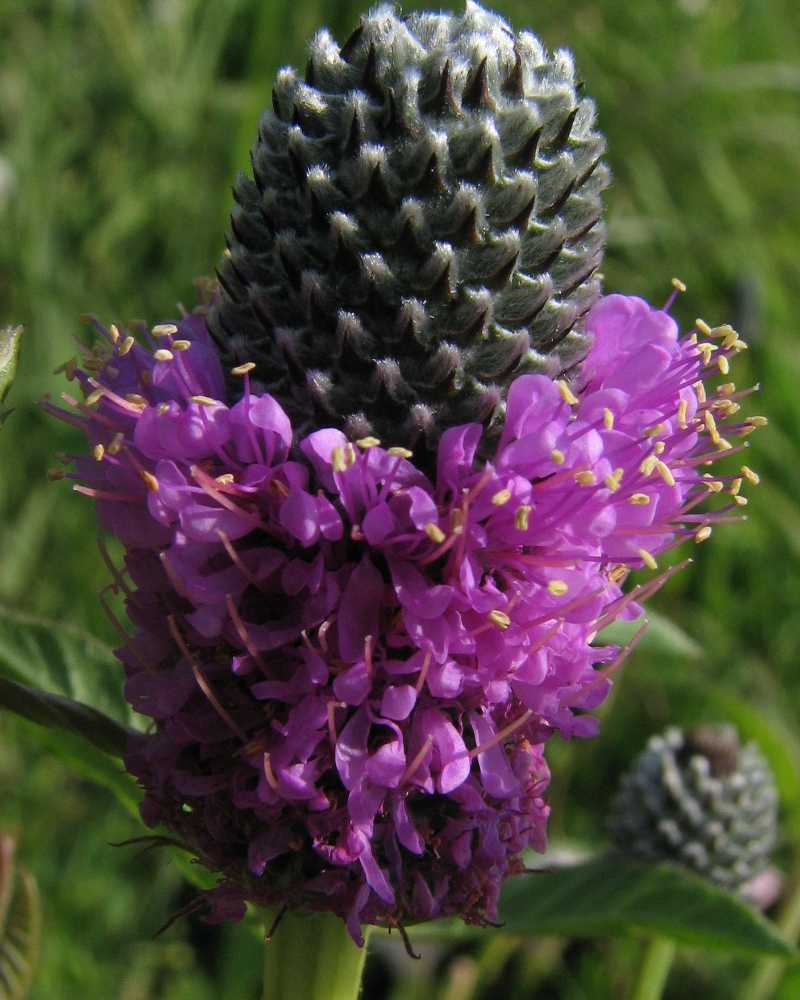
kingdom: Plantae
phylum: Tracheophyta
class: Magnoliopsida
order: Fabales
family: Fabaceae
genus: Dalea
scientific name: Dalea purpurea
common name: Purple prairie-clover
